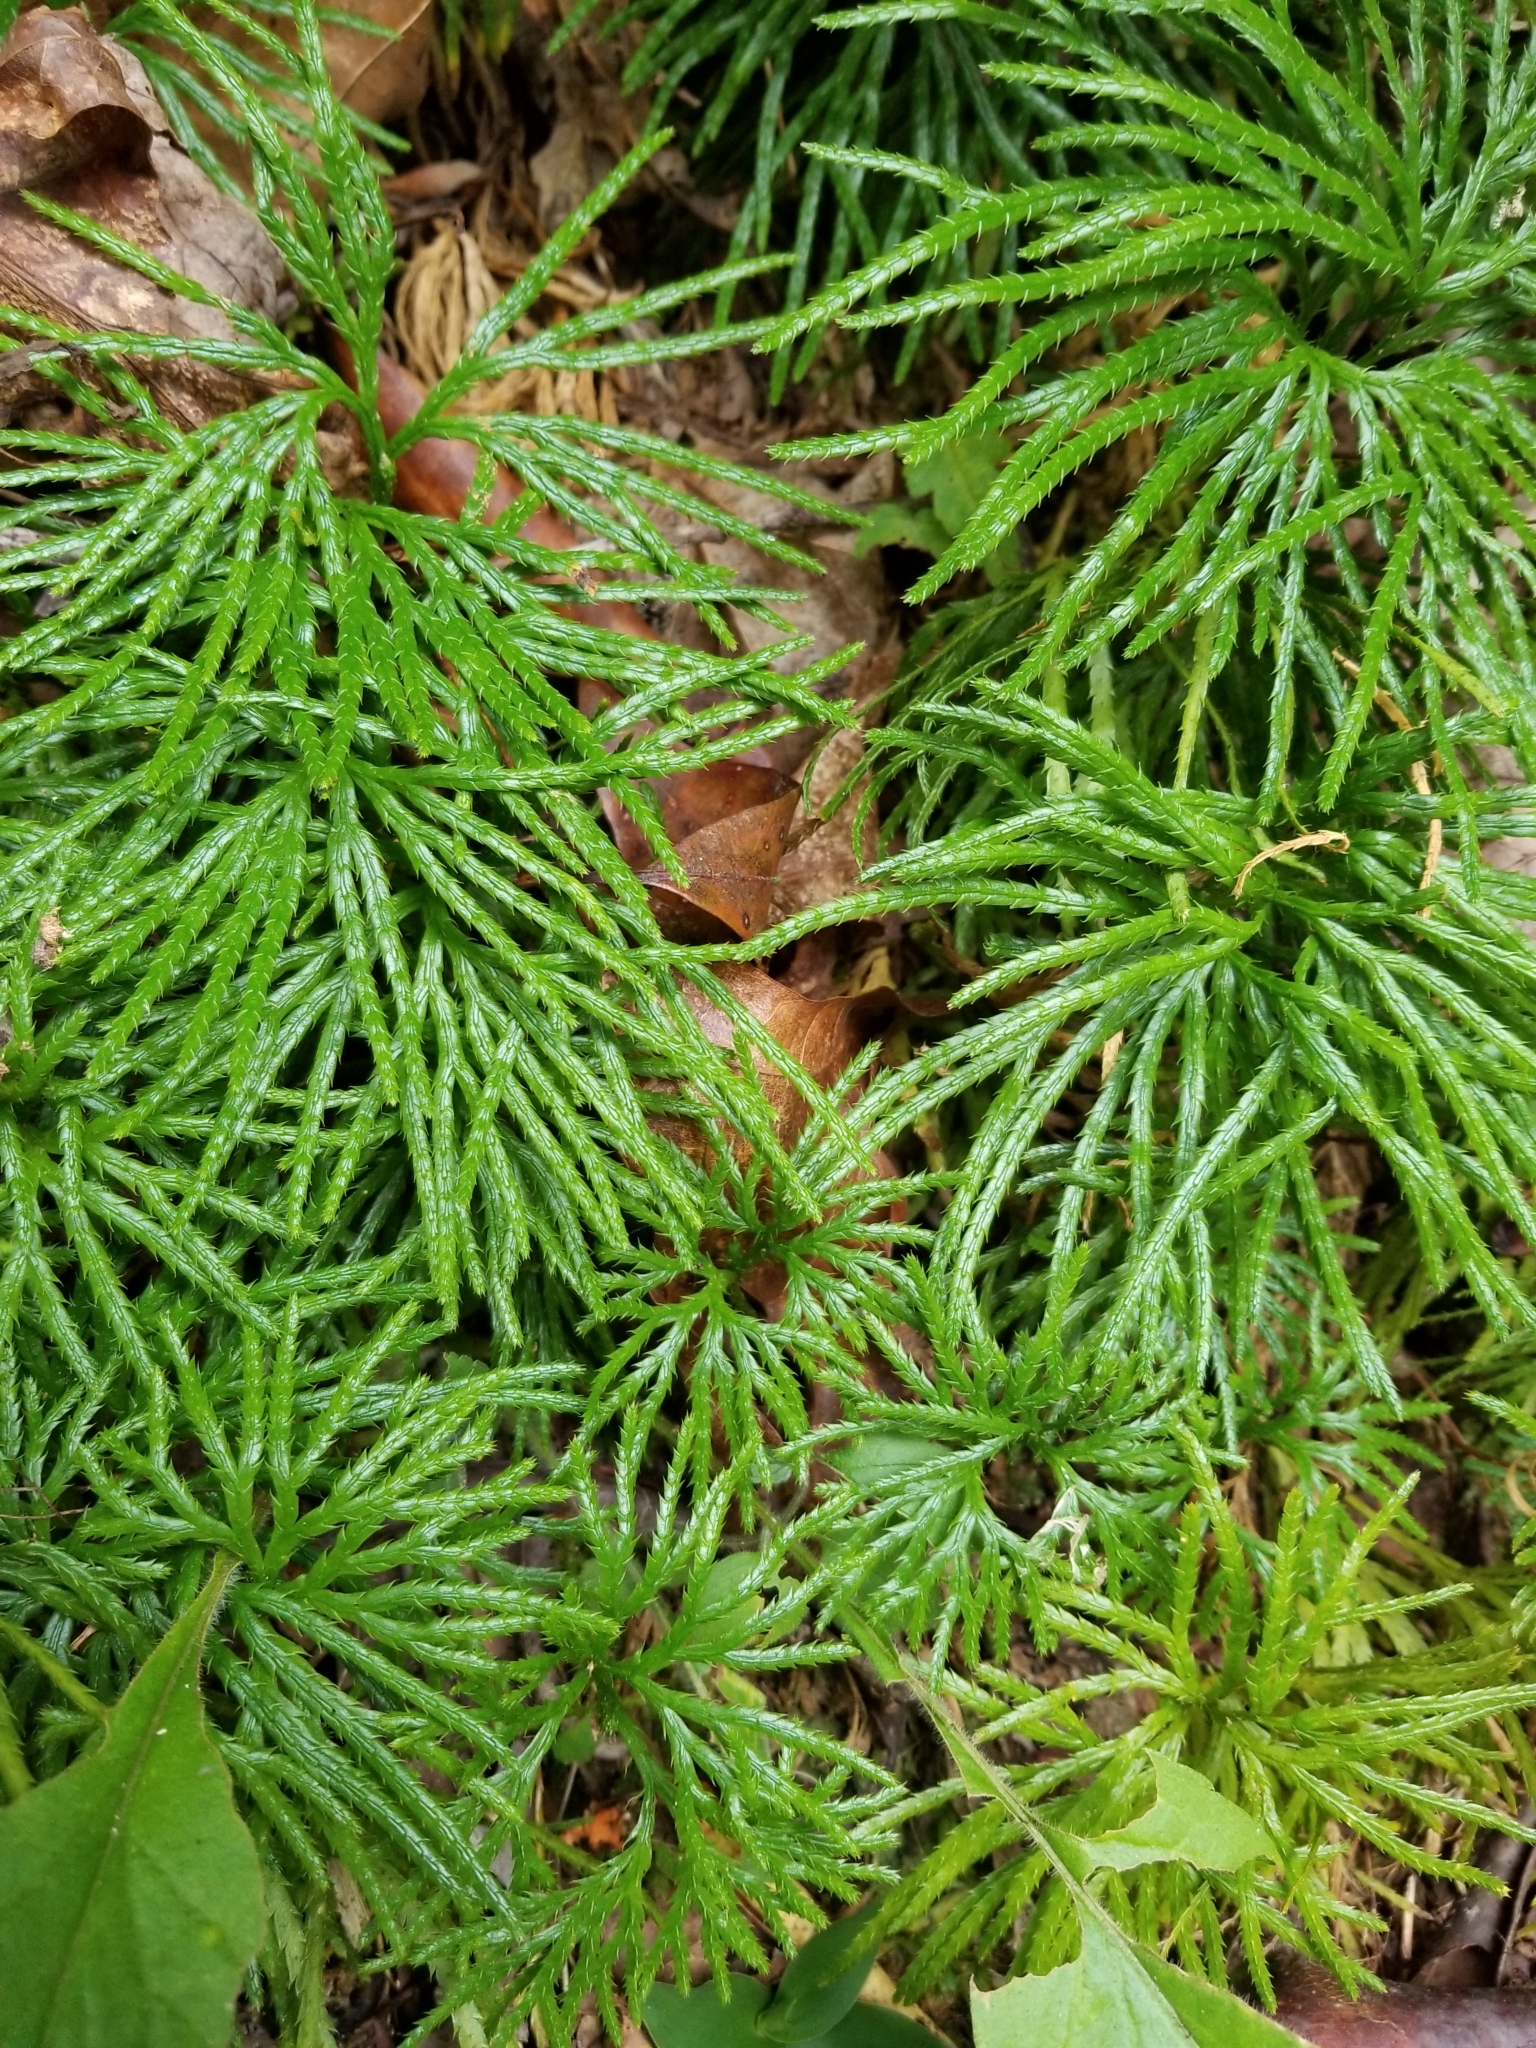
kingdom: Plantae
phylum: Tracheophyta
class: Lycopodiopsida
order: Lycopodiales
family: Lycopodiaceae
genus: Diphasiastrum
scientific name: Diphasiastrum digitatum
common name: Southern running-pine
